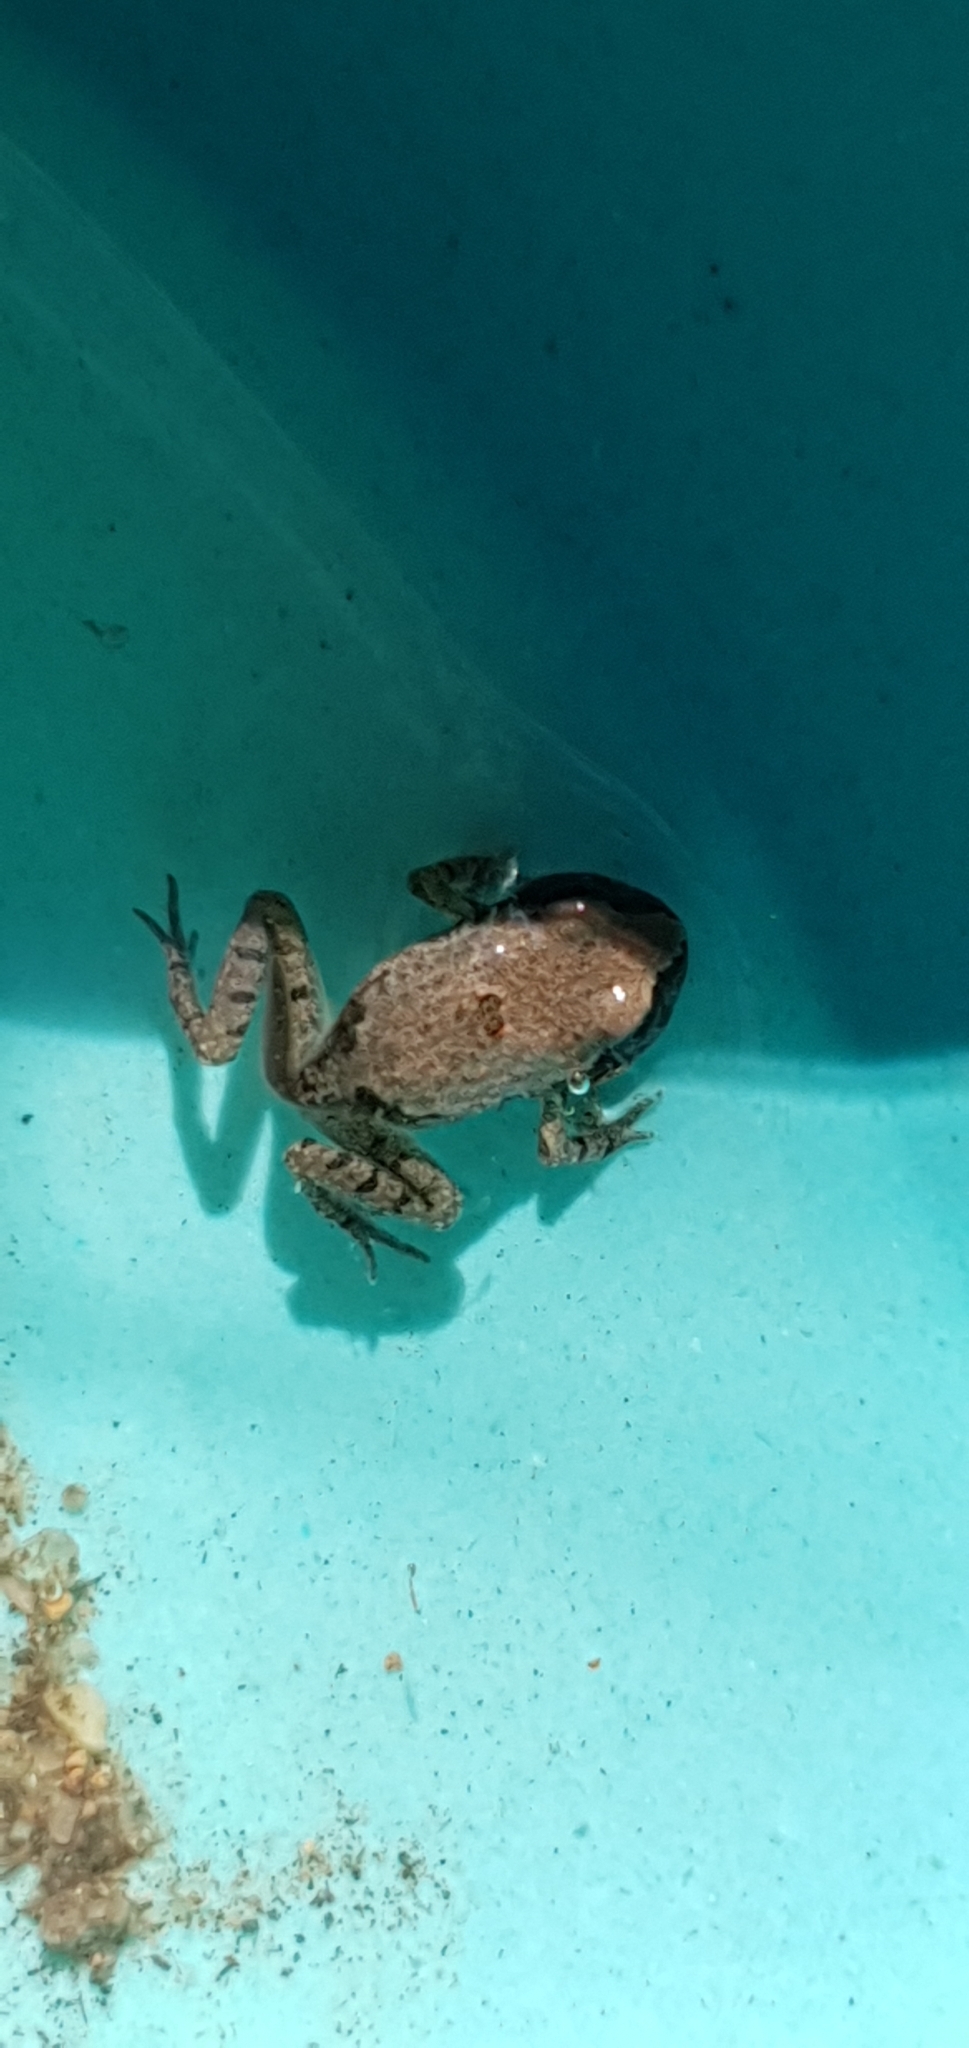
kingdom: Animalia
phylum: Chordata
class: Amphibia
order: Anura
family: Limnodynastidae
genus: Platyplectrum
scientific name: Platyplectrum ornatum
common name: Ornate burrowing frog
